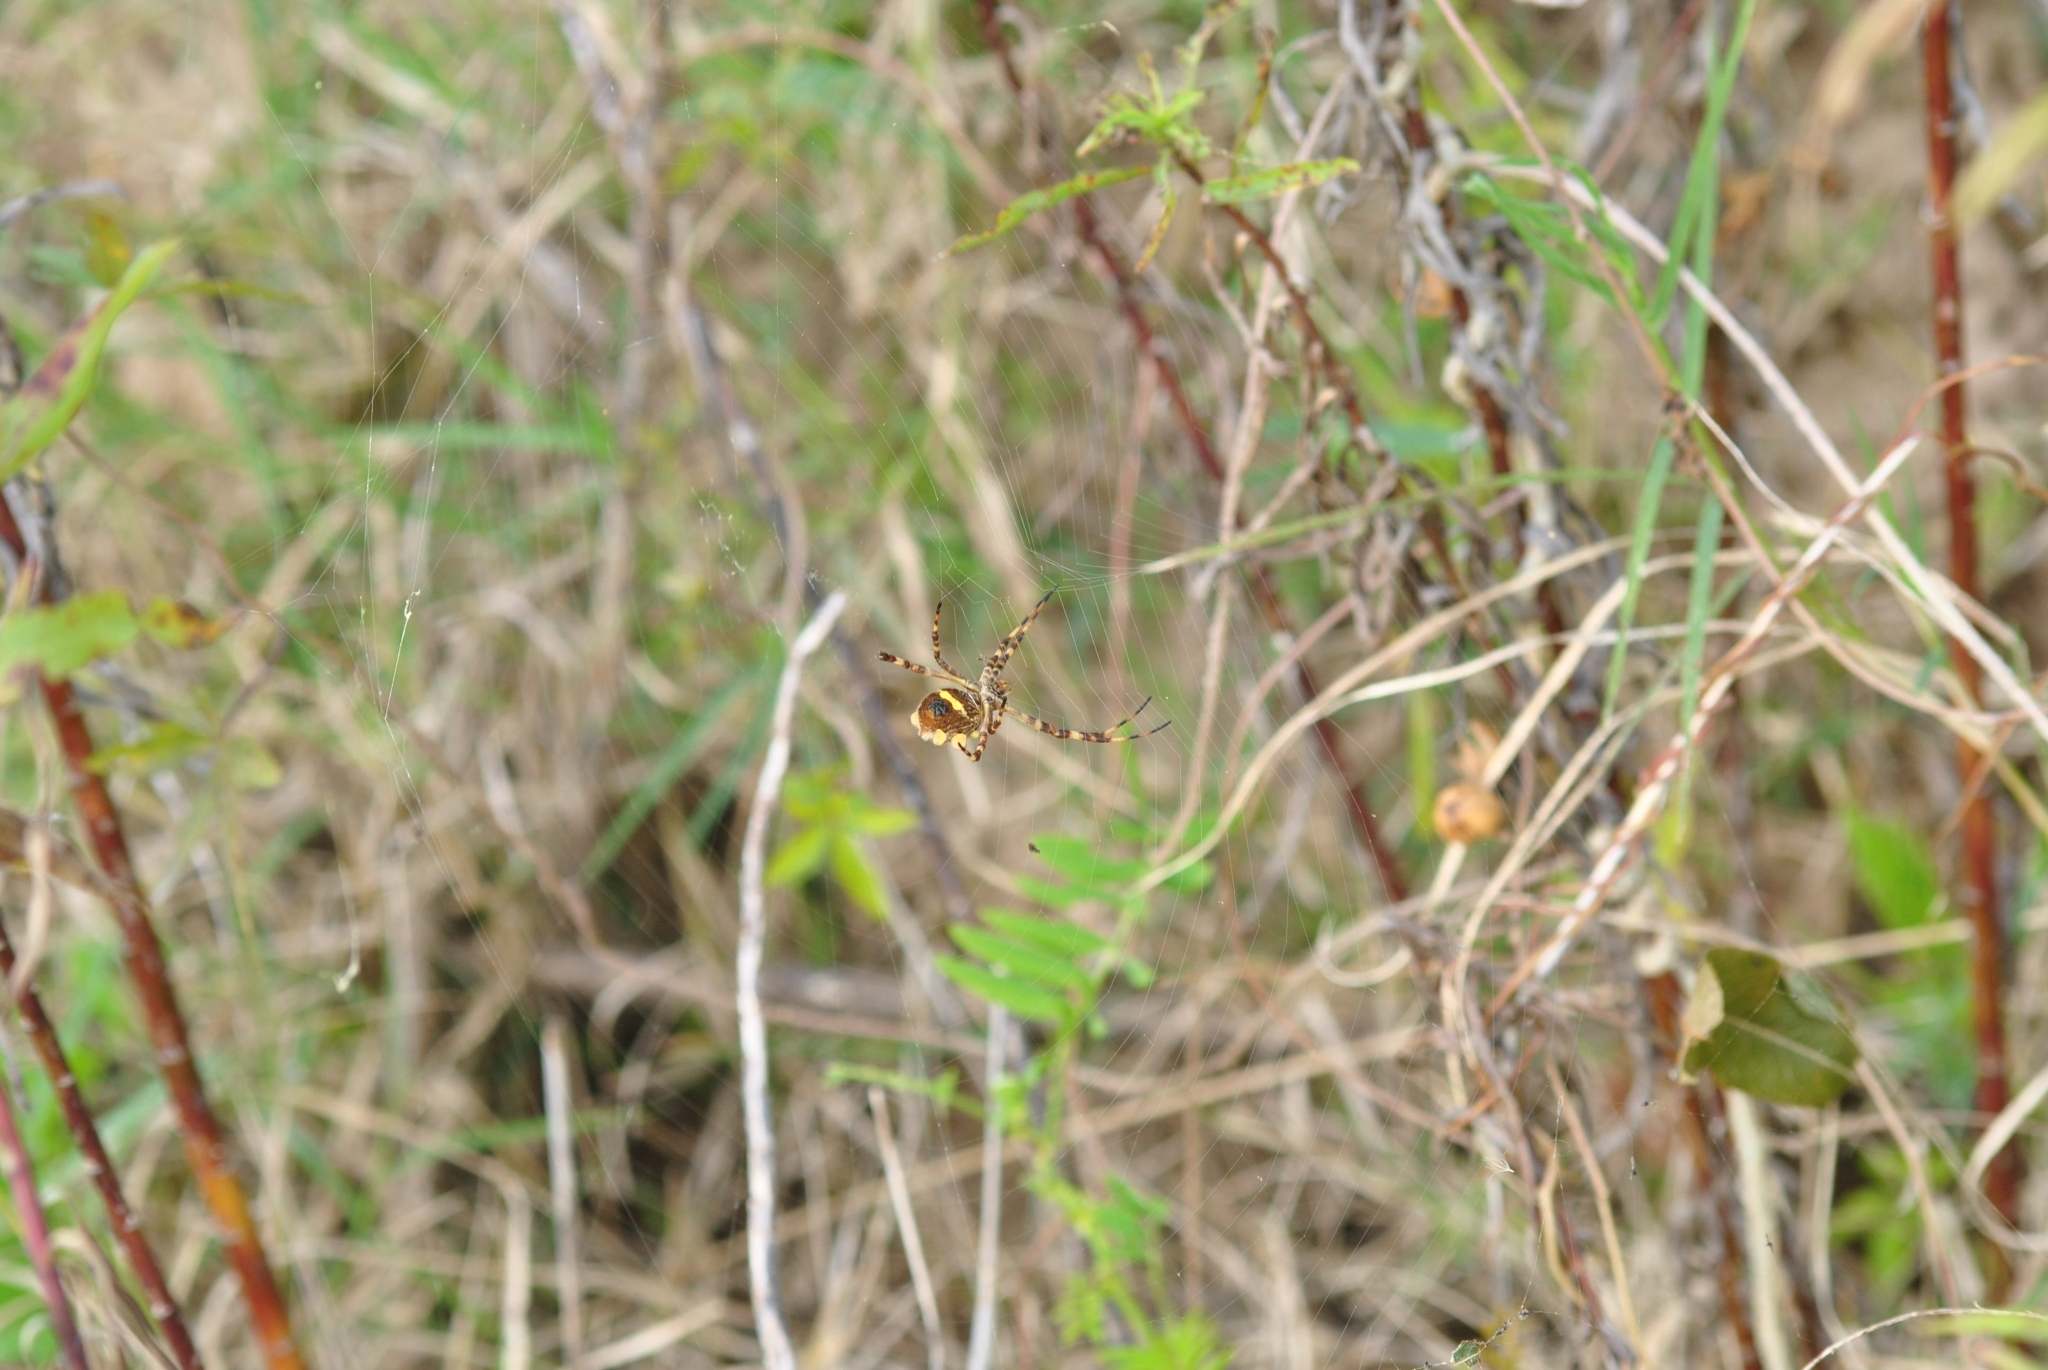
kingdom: Animalia
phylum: Arthropoda
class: Arachnida
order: Araneae
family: Araneidae
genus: Argiope
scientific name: Argiope argentata
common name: Orb weavers
